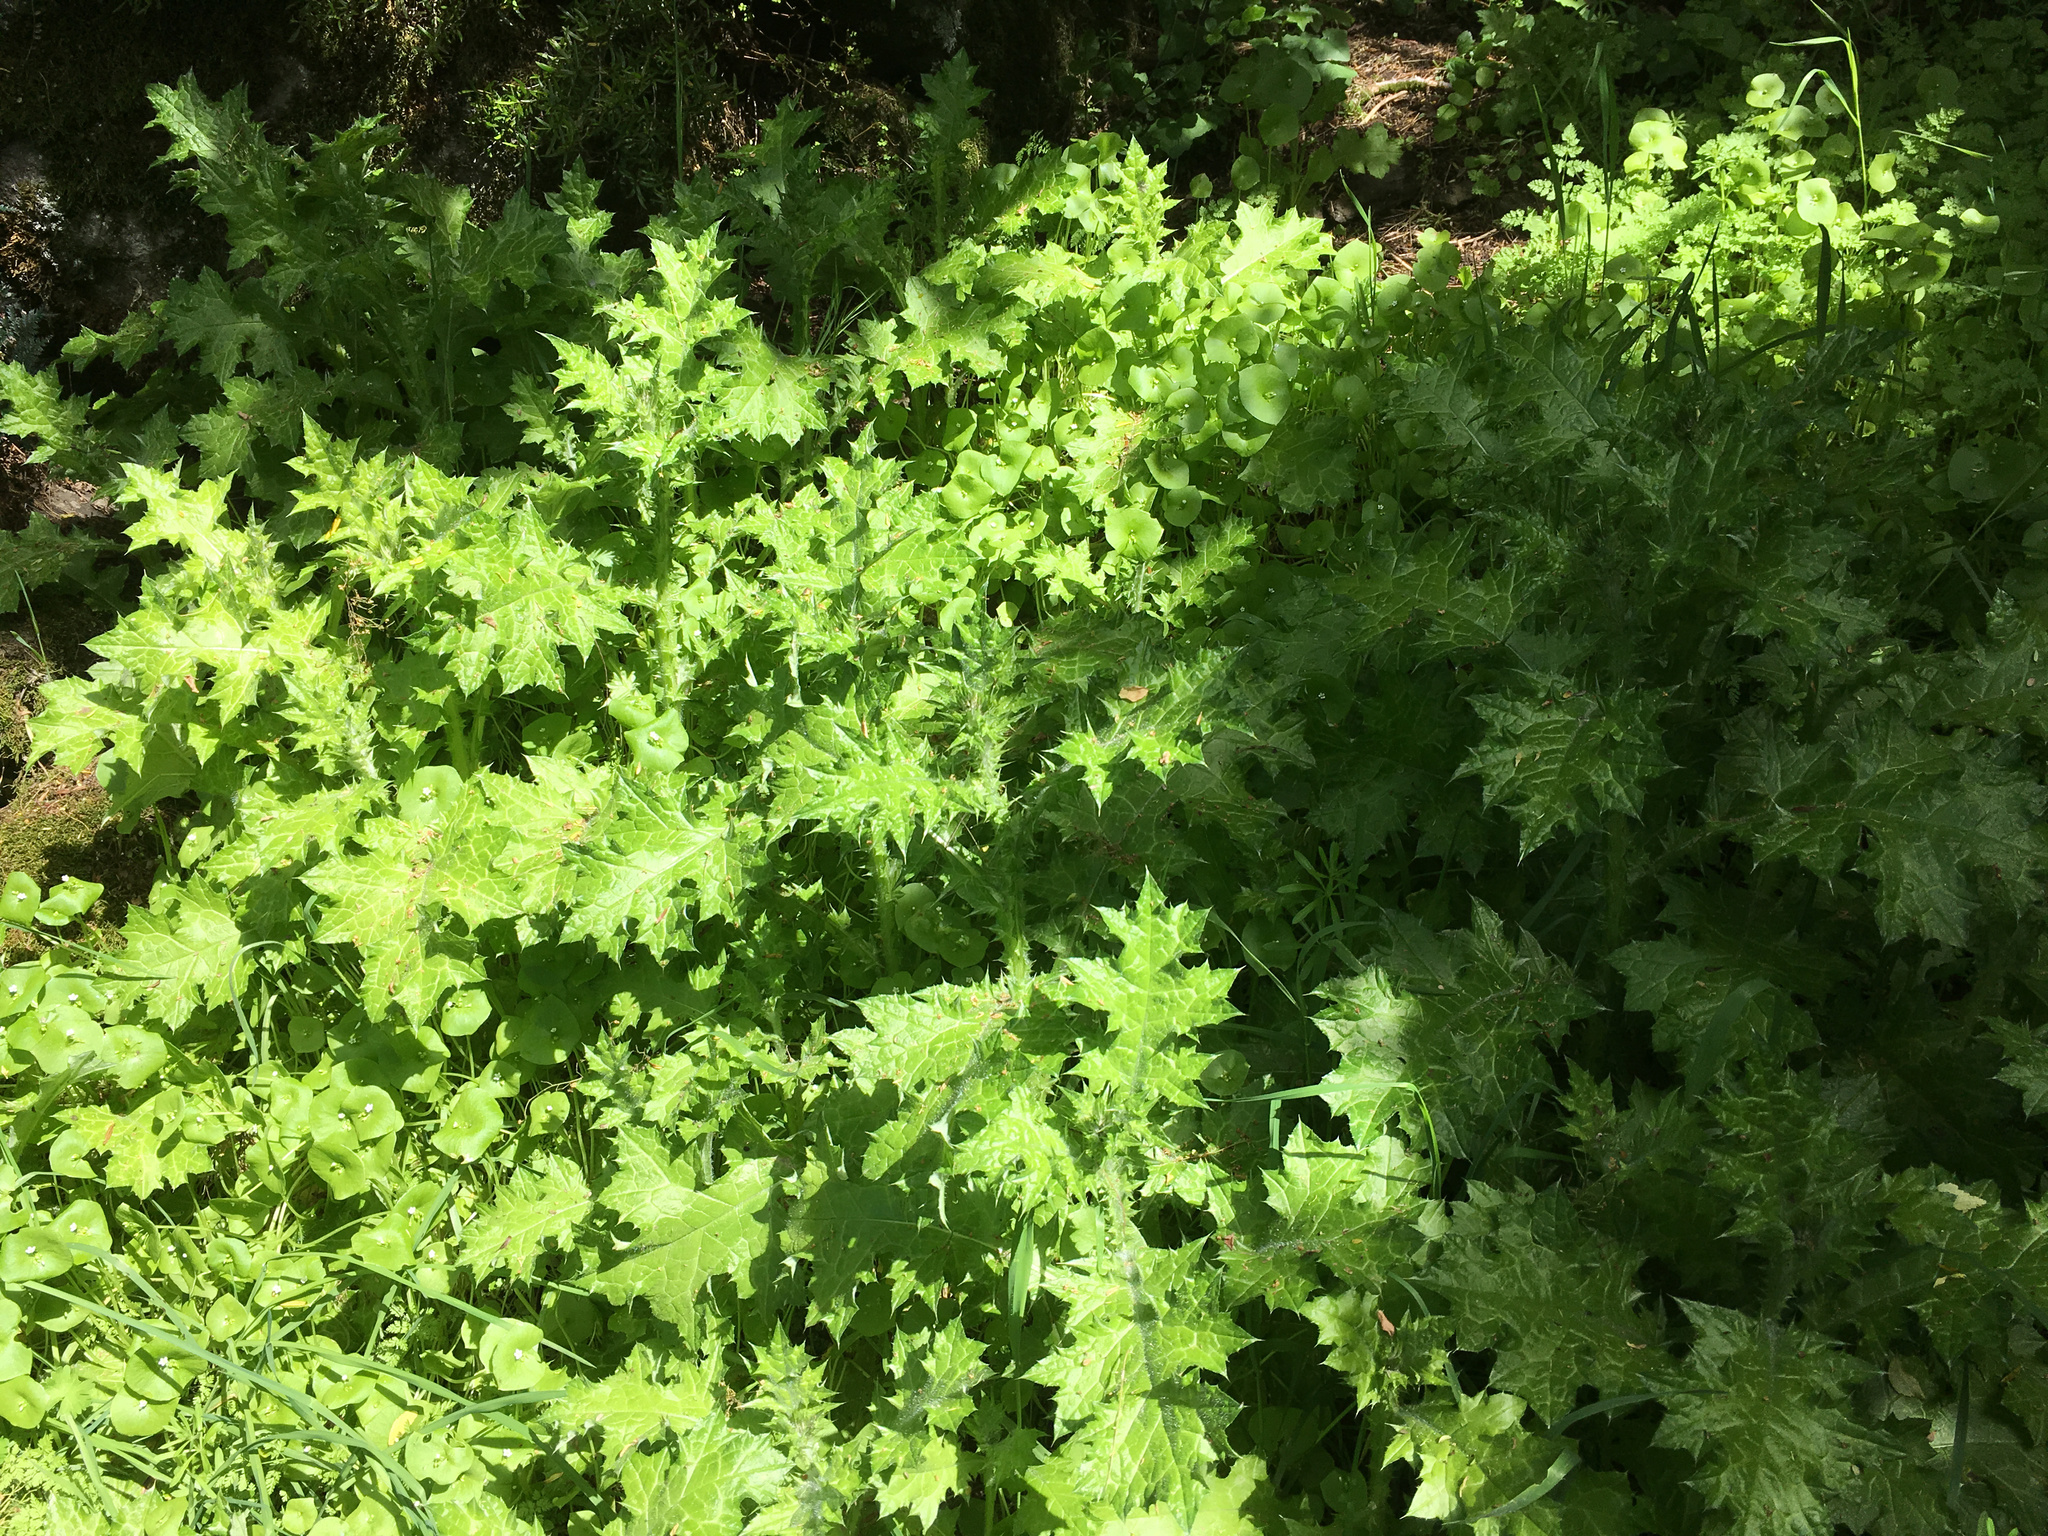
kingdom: Plantae
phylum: Tracheophyta
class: Magnoliopsida
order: Asterales
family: Asteraceae
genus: Carduus
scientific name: Carduus tenuiflorus
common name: Slender thistle
